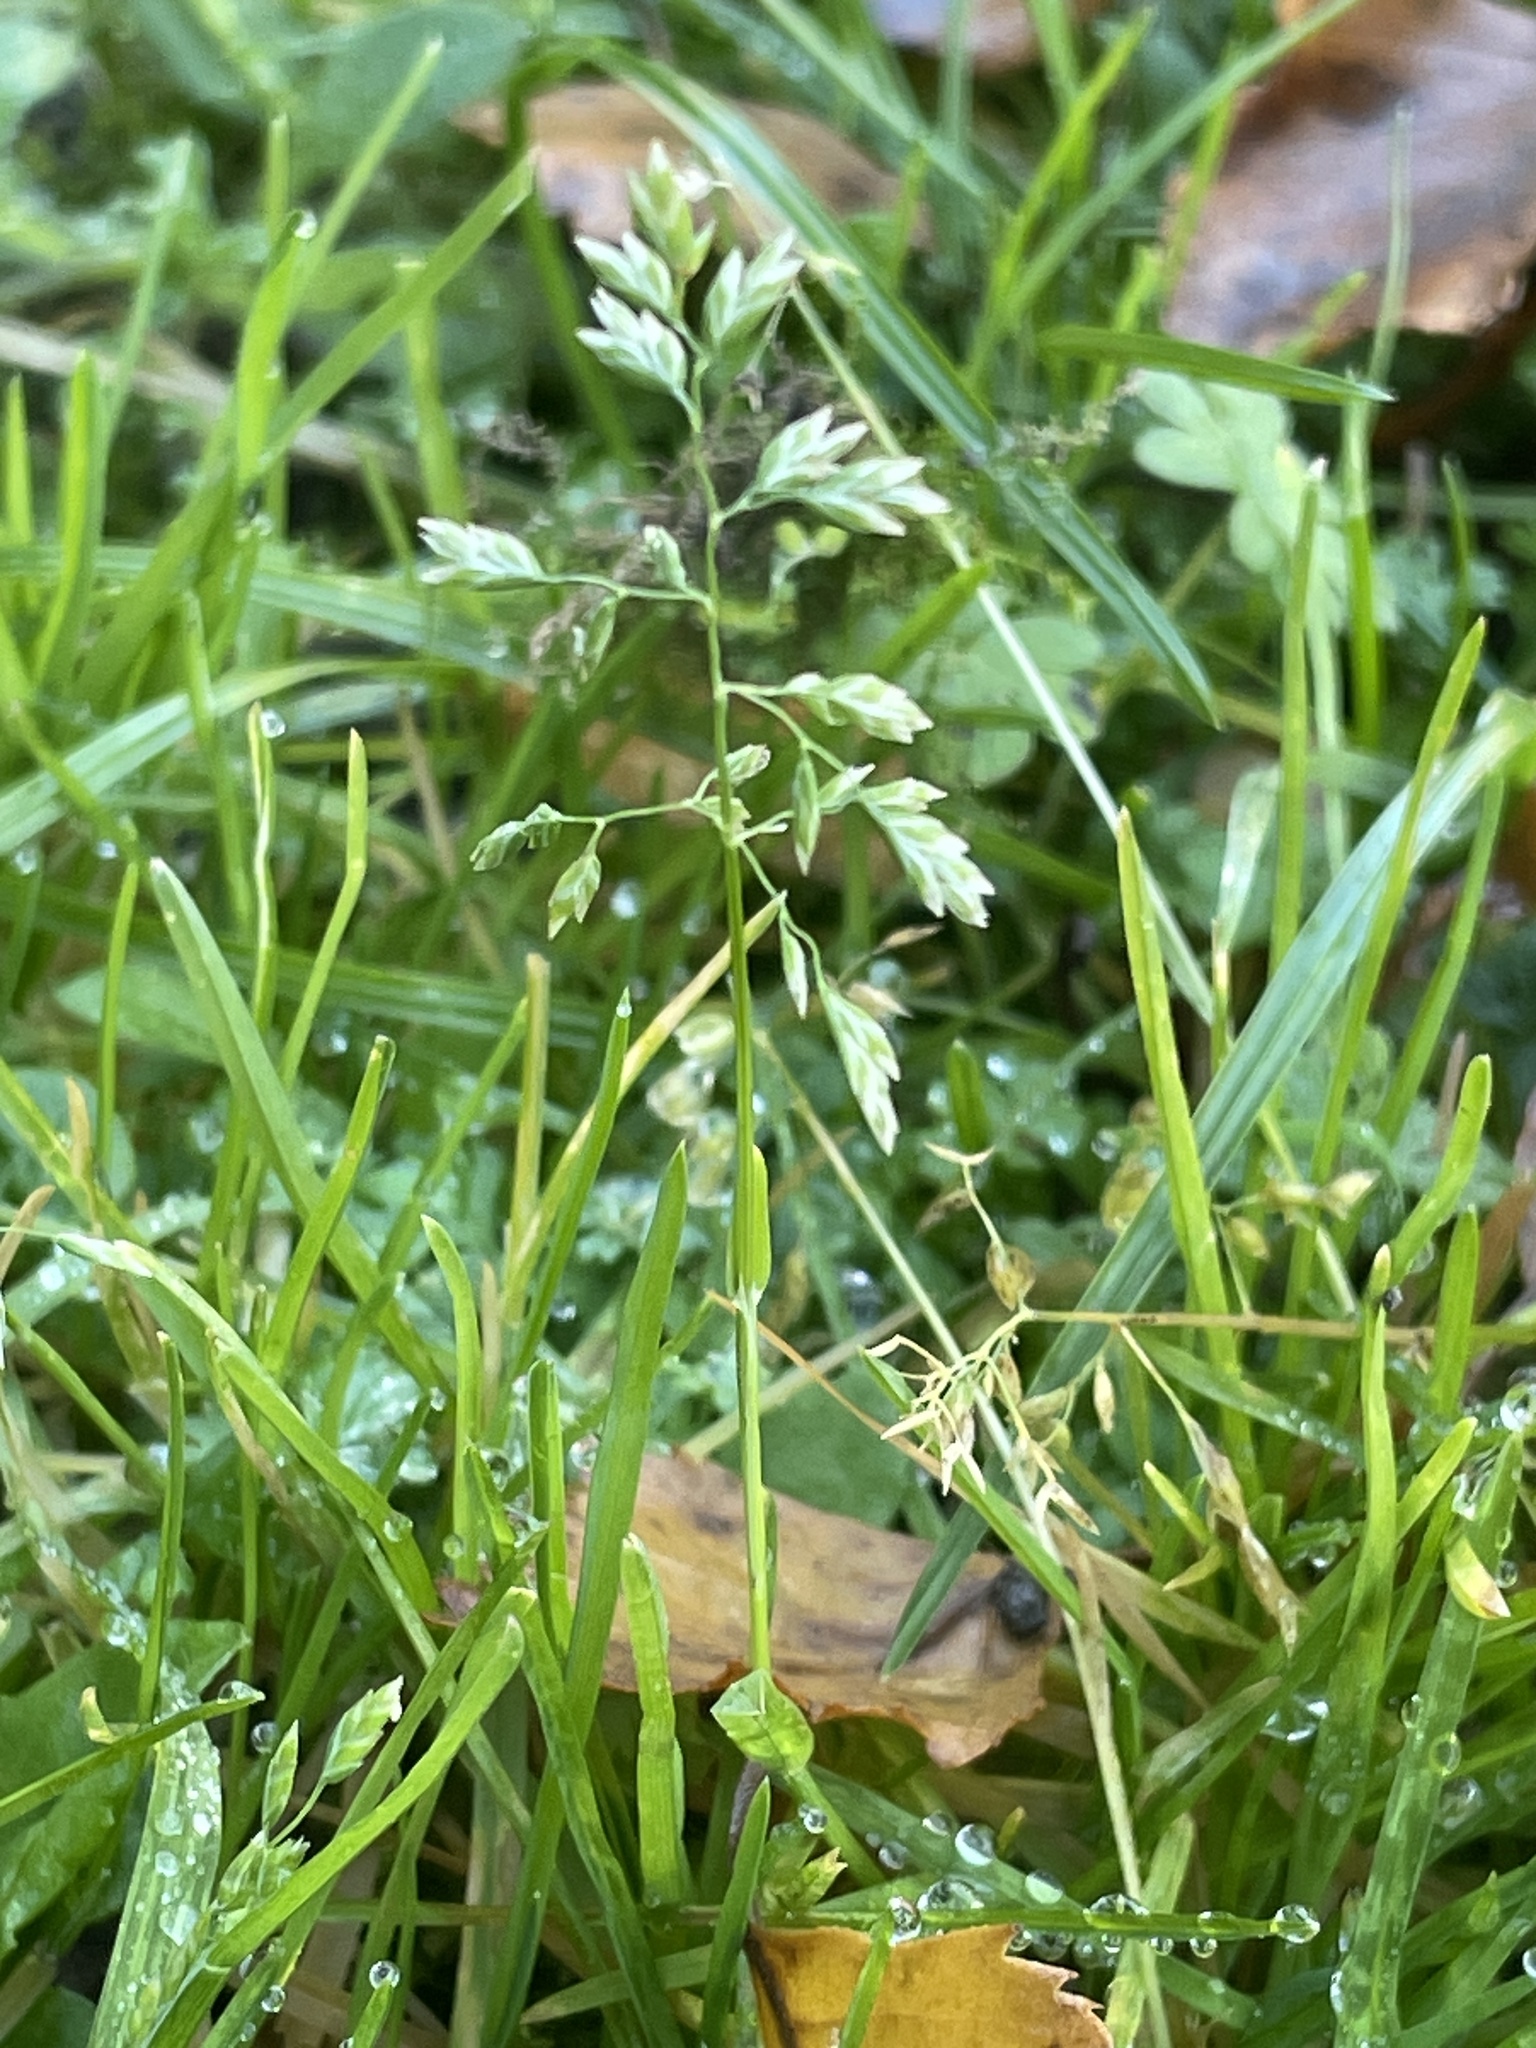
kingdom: Plantae
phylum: Tracheophyta
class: Liliopsida
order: Poales
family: Poaceae
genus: Poa
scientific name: Poa annua
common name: Annual bluegrass
